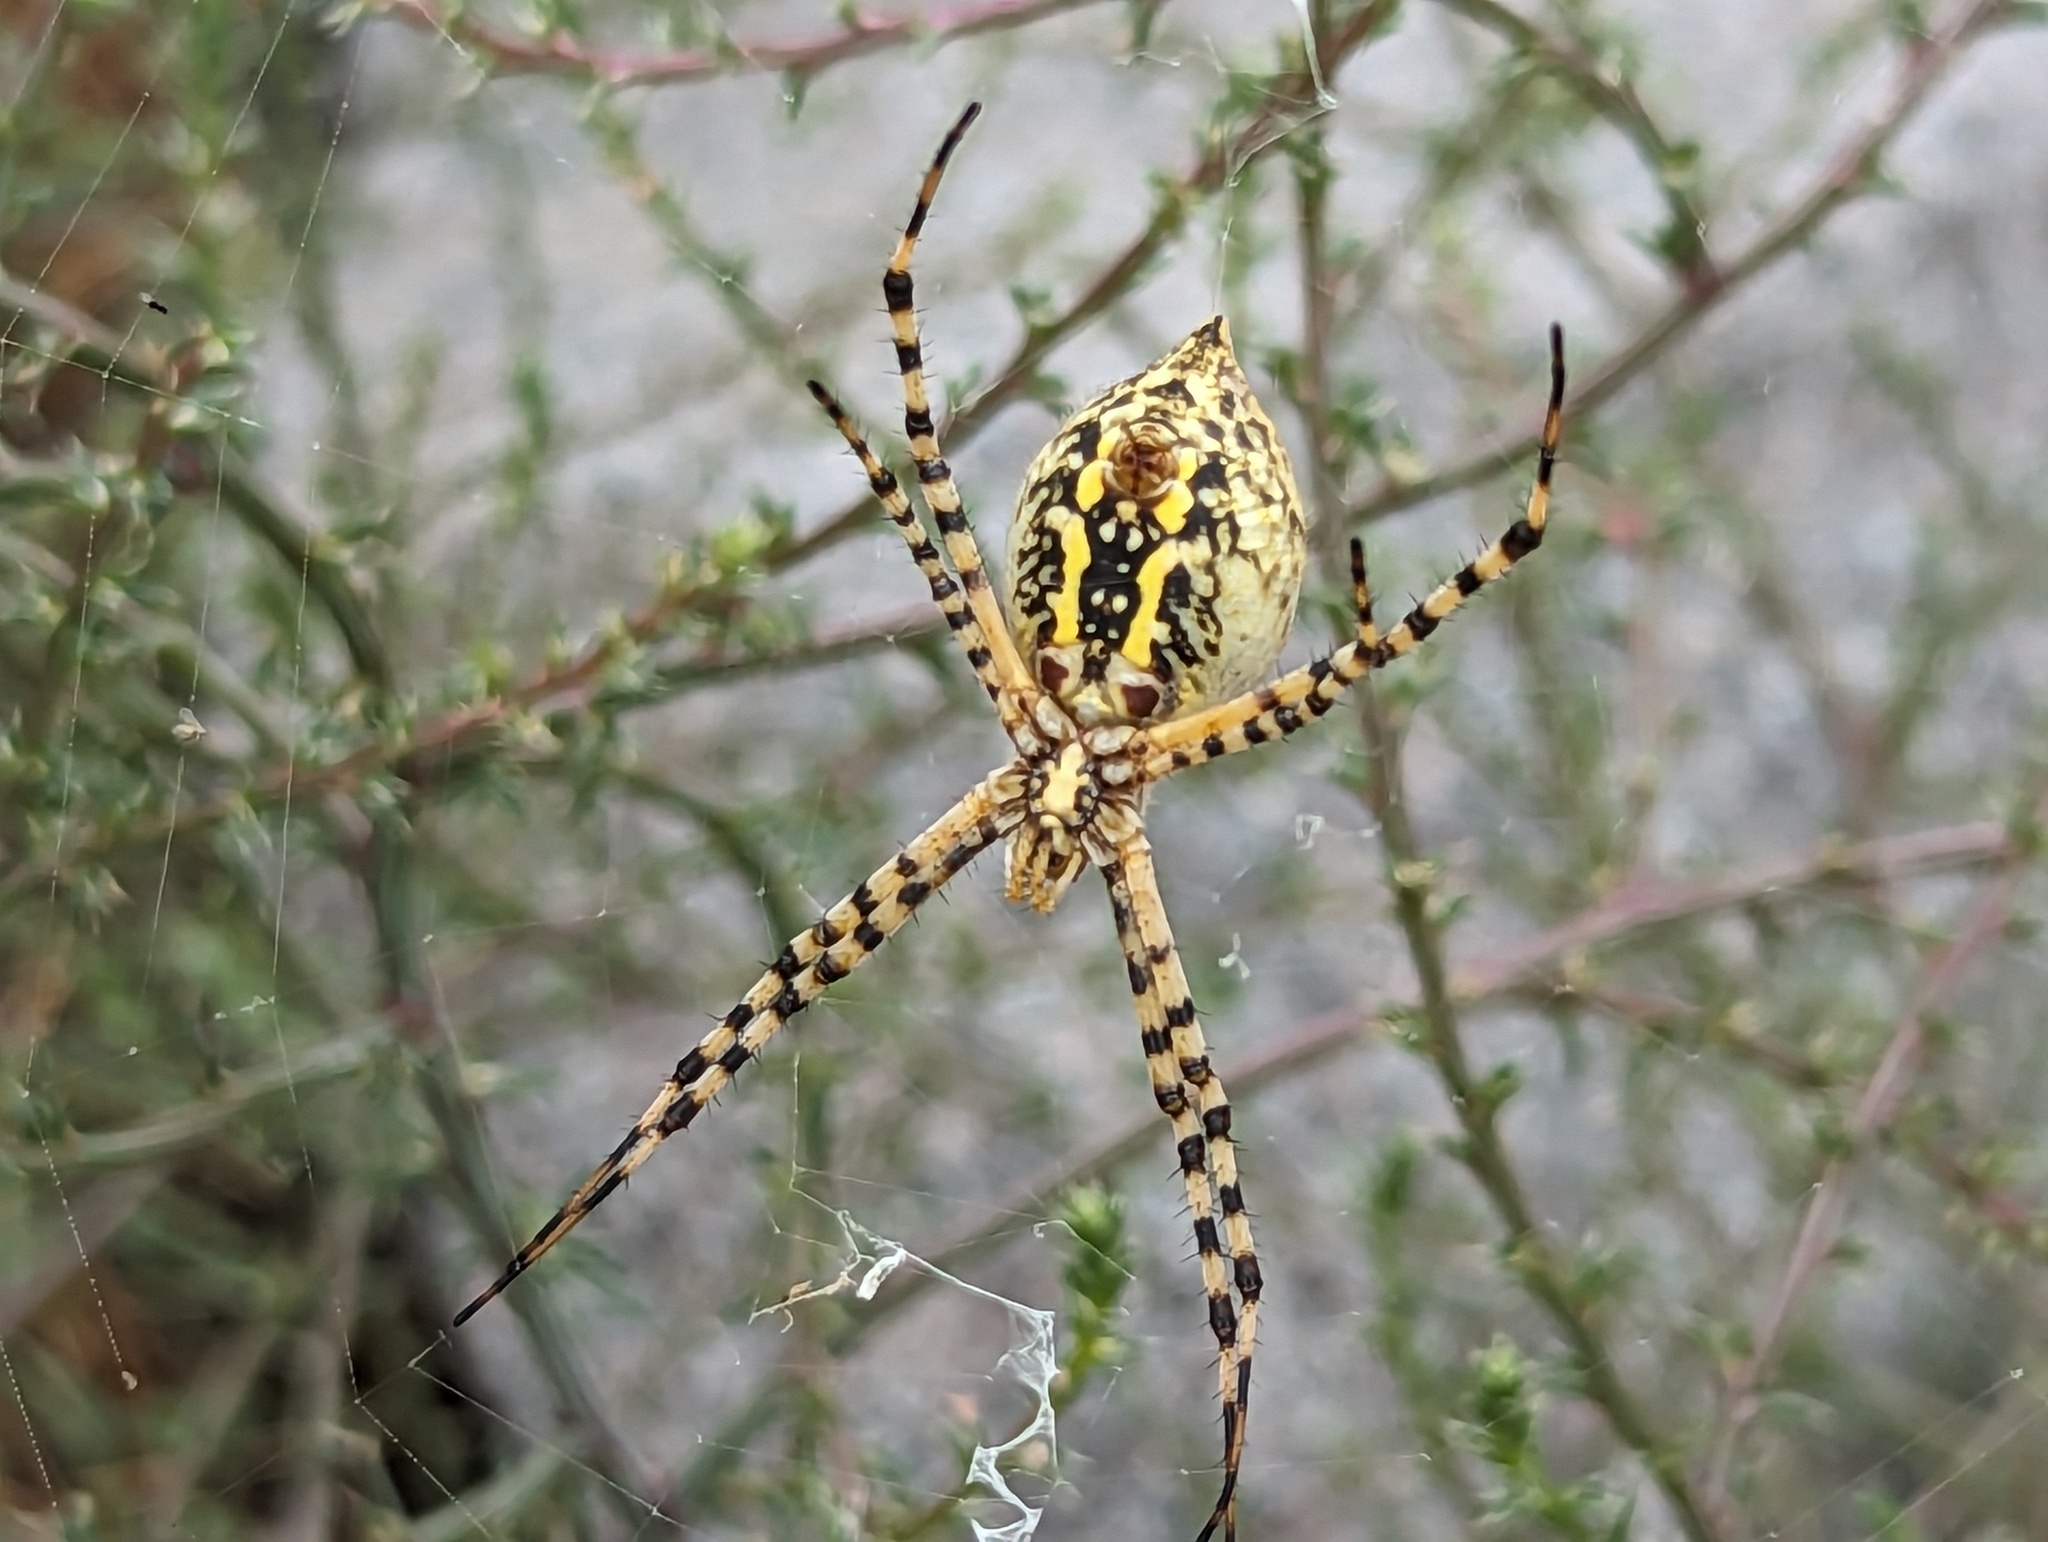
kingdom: Animalia
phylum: Arthropoda
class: Arachnida
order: Araneae
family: Araneidae
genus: Argiope
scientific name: Argiope trifasciata
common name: Banded garden spider
